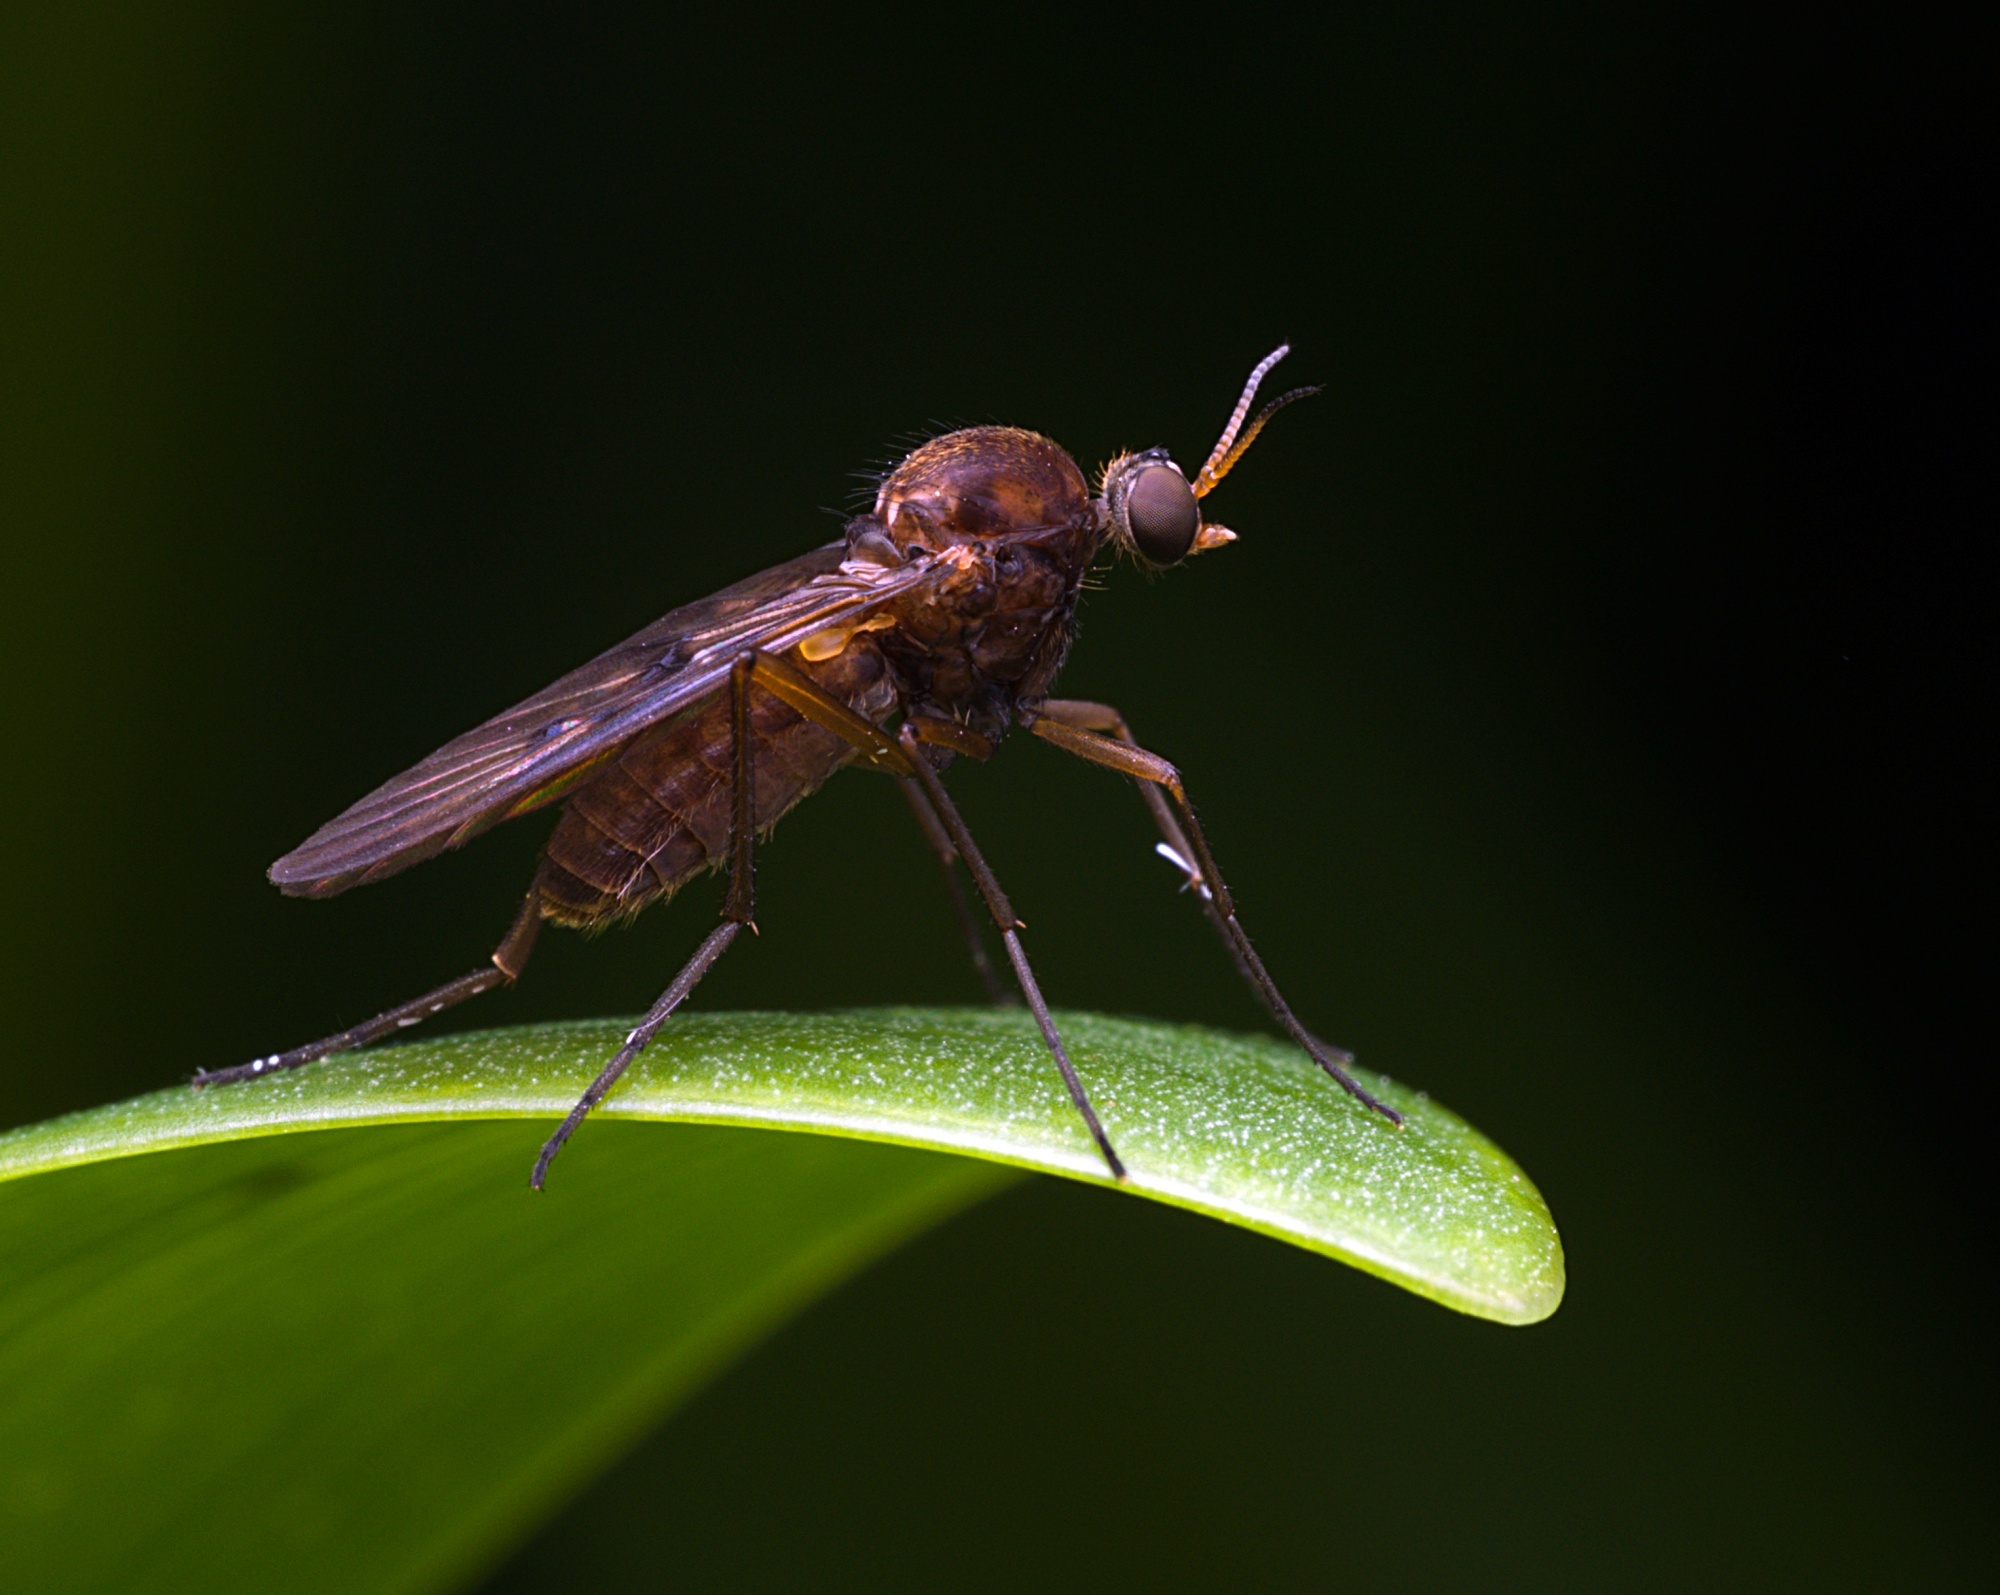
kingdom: Animalia
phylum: Arthropoda
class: Insecta
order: Diptera
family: Anisopodidae
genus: Sylvicola
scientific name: Sylvicola neozelandicus
